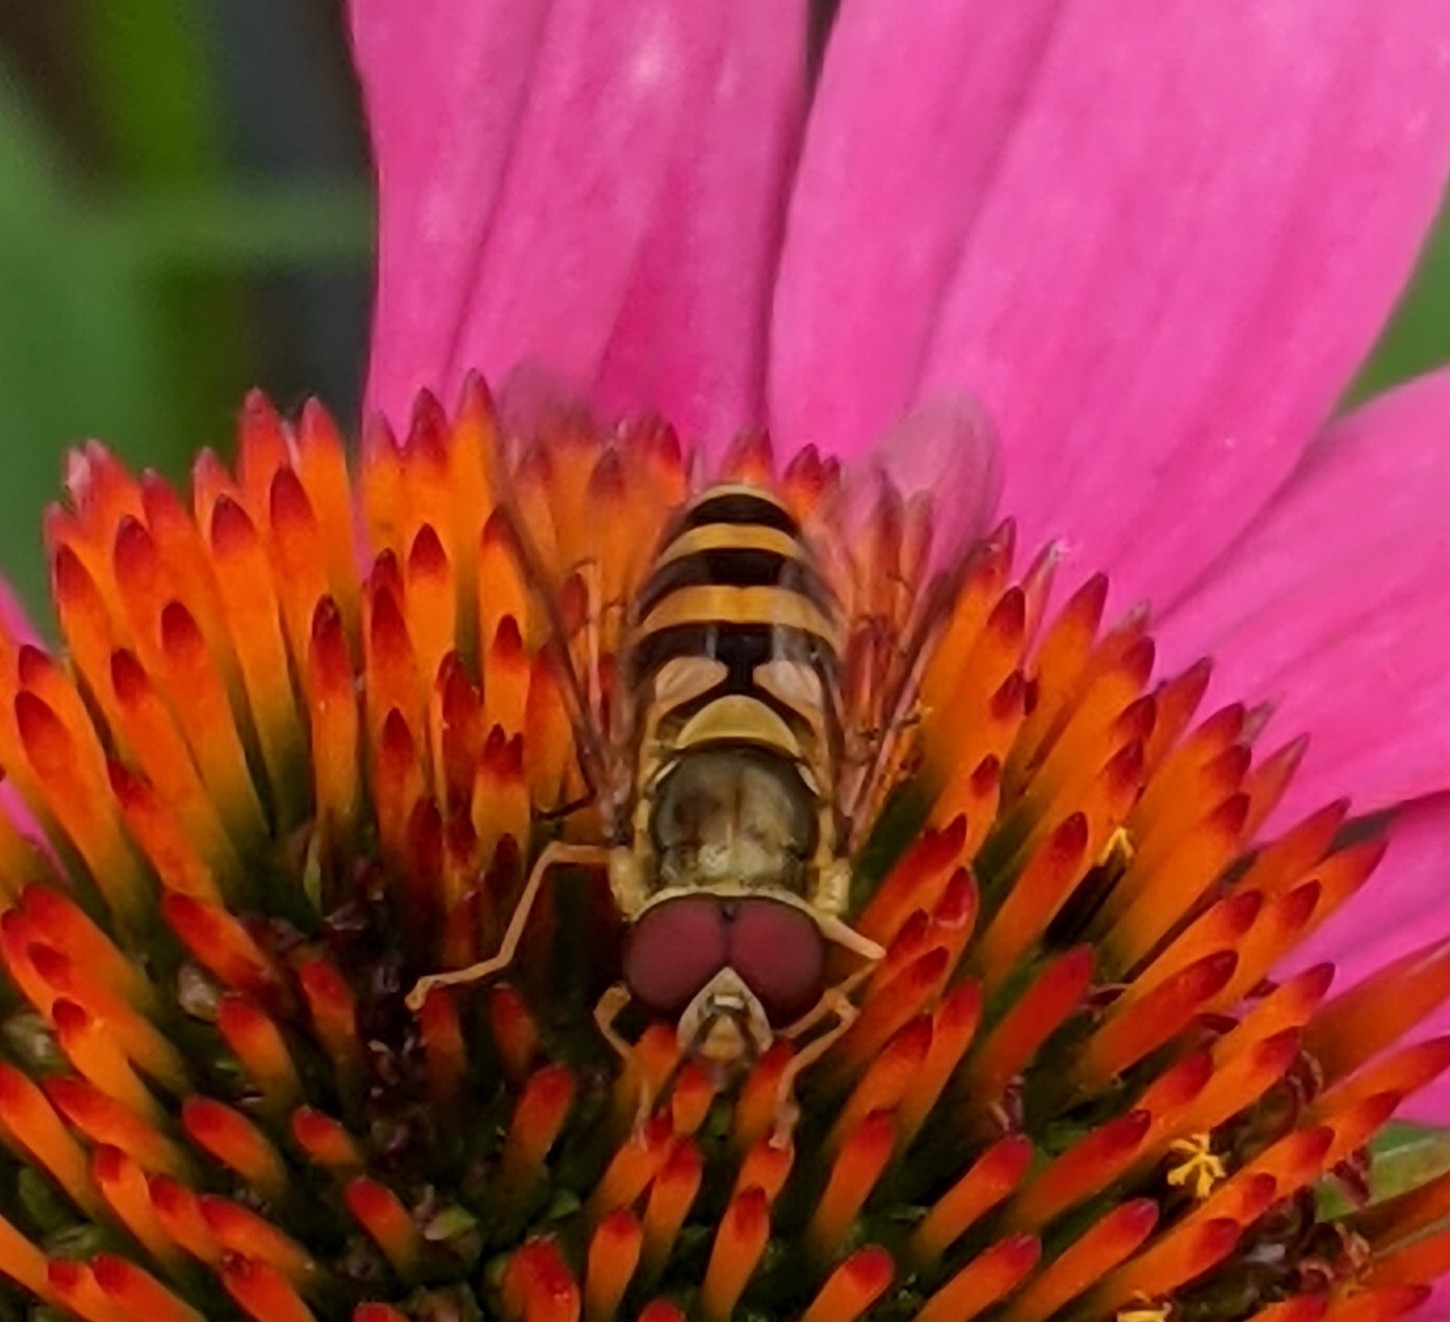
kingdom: Animalia
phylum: Arthropoda
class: Insecta
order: Diptera
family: Syrphidae
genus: Syrphus
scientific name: Syrphus
